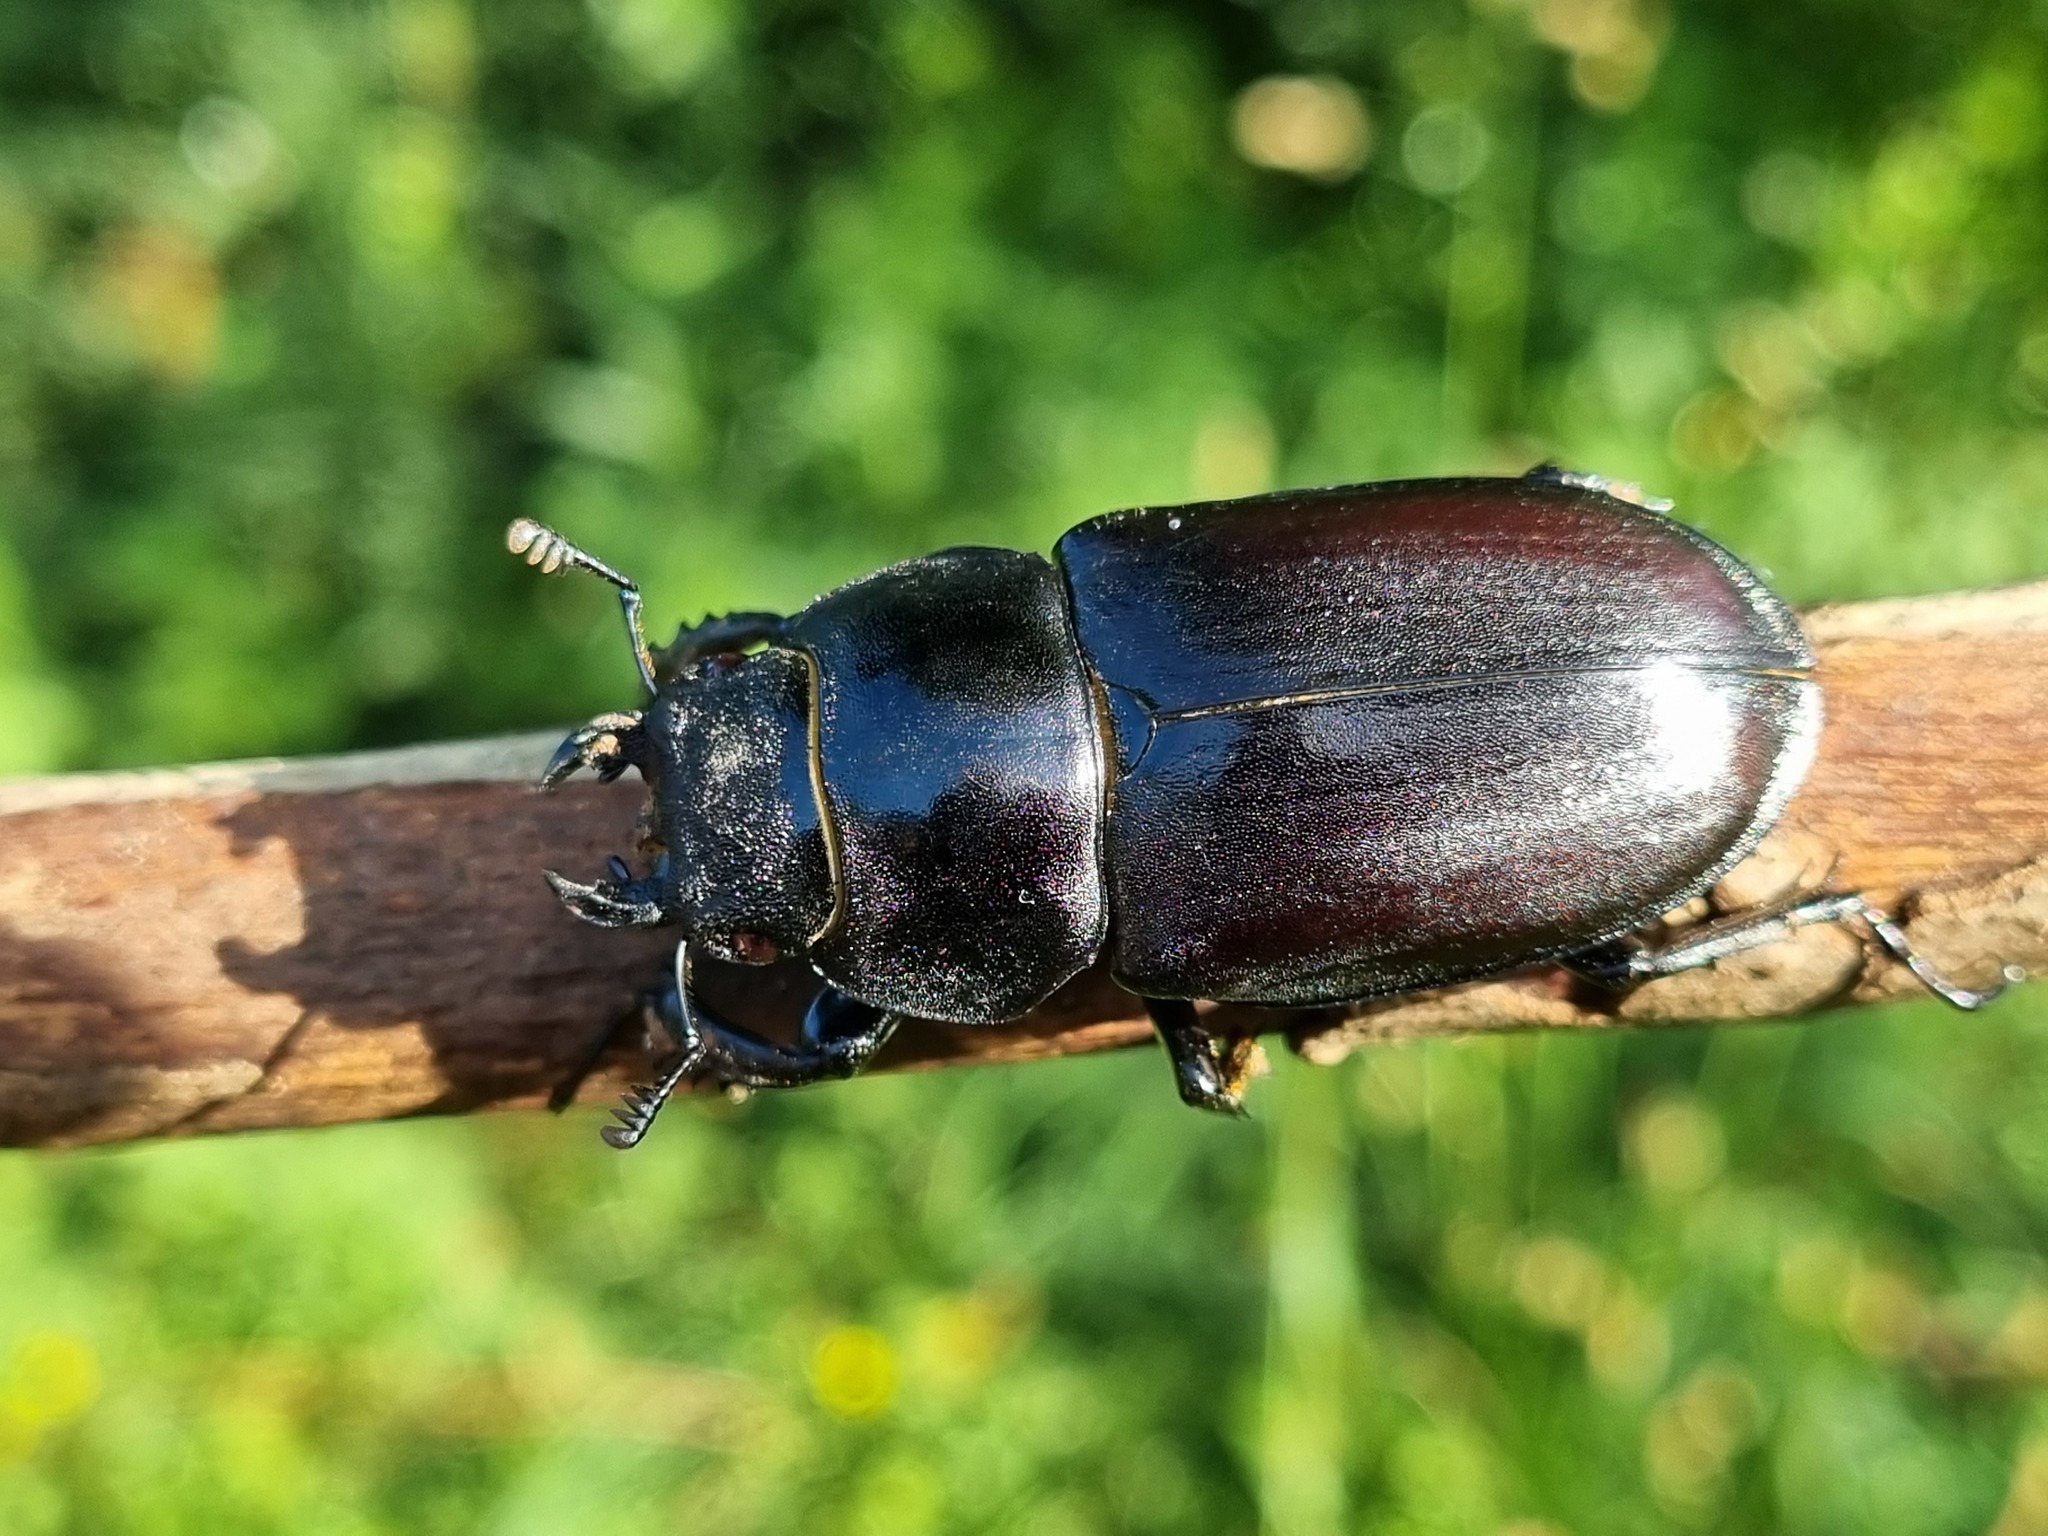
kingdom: Animalia
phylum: Arthropoda
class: Insecta
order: Coleoptera
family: Lucanidae
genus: Lucanus
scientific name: Lucanus cervus
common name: Stag beetle
